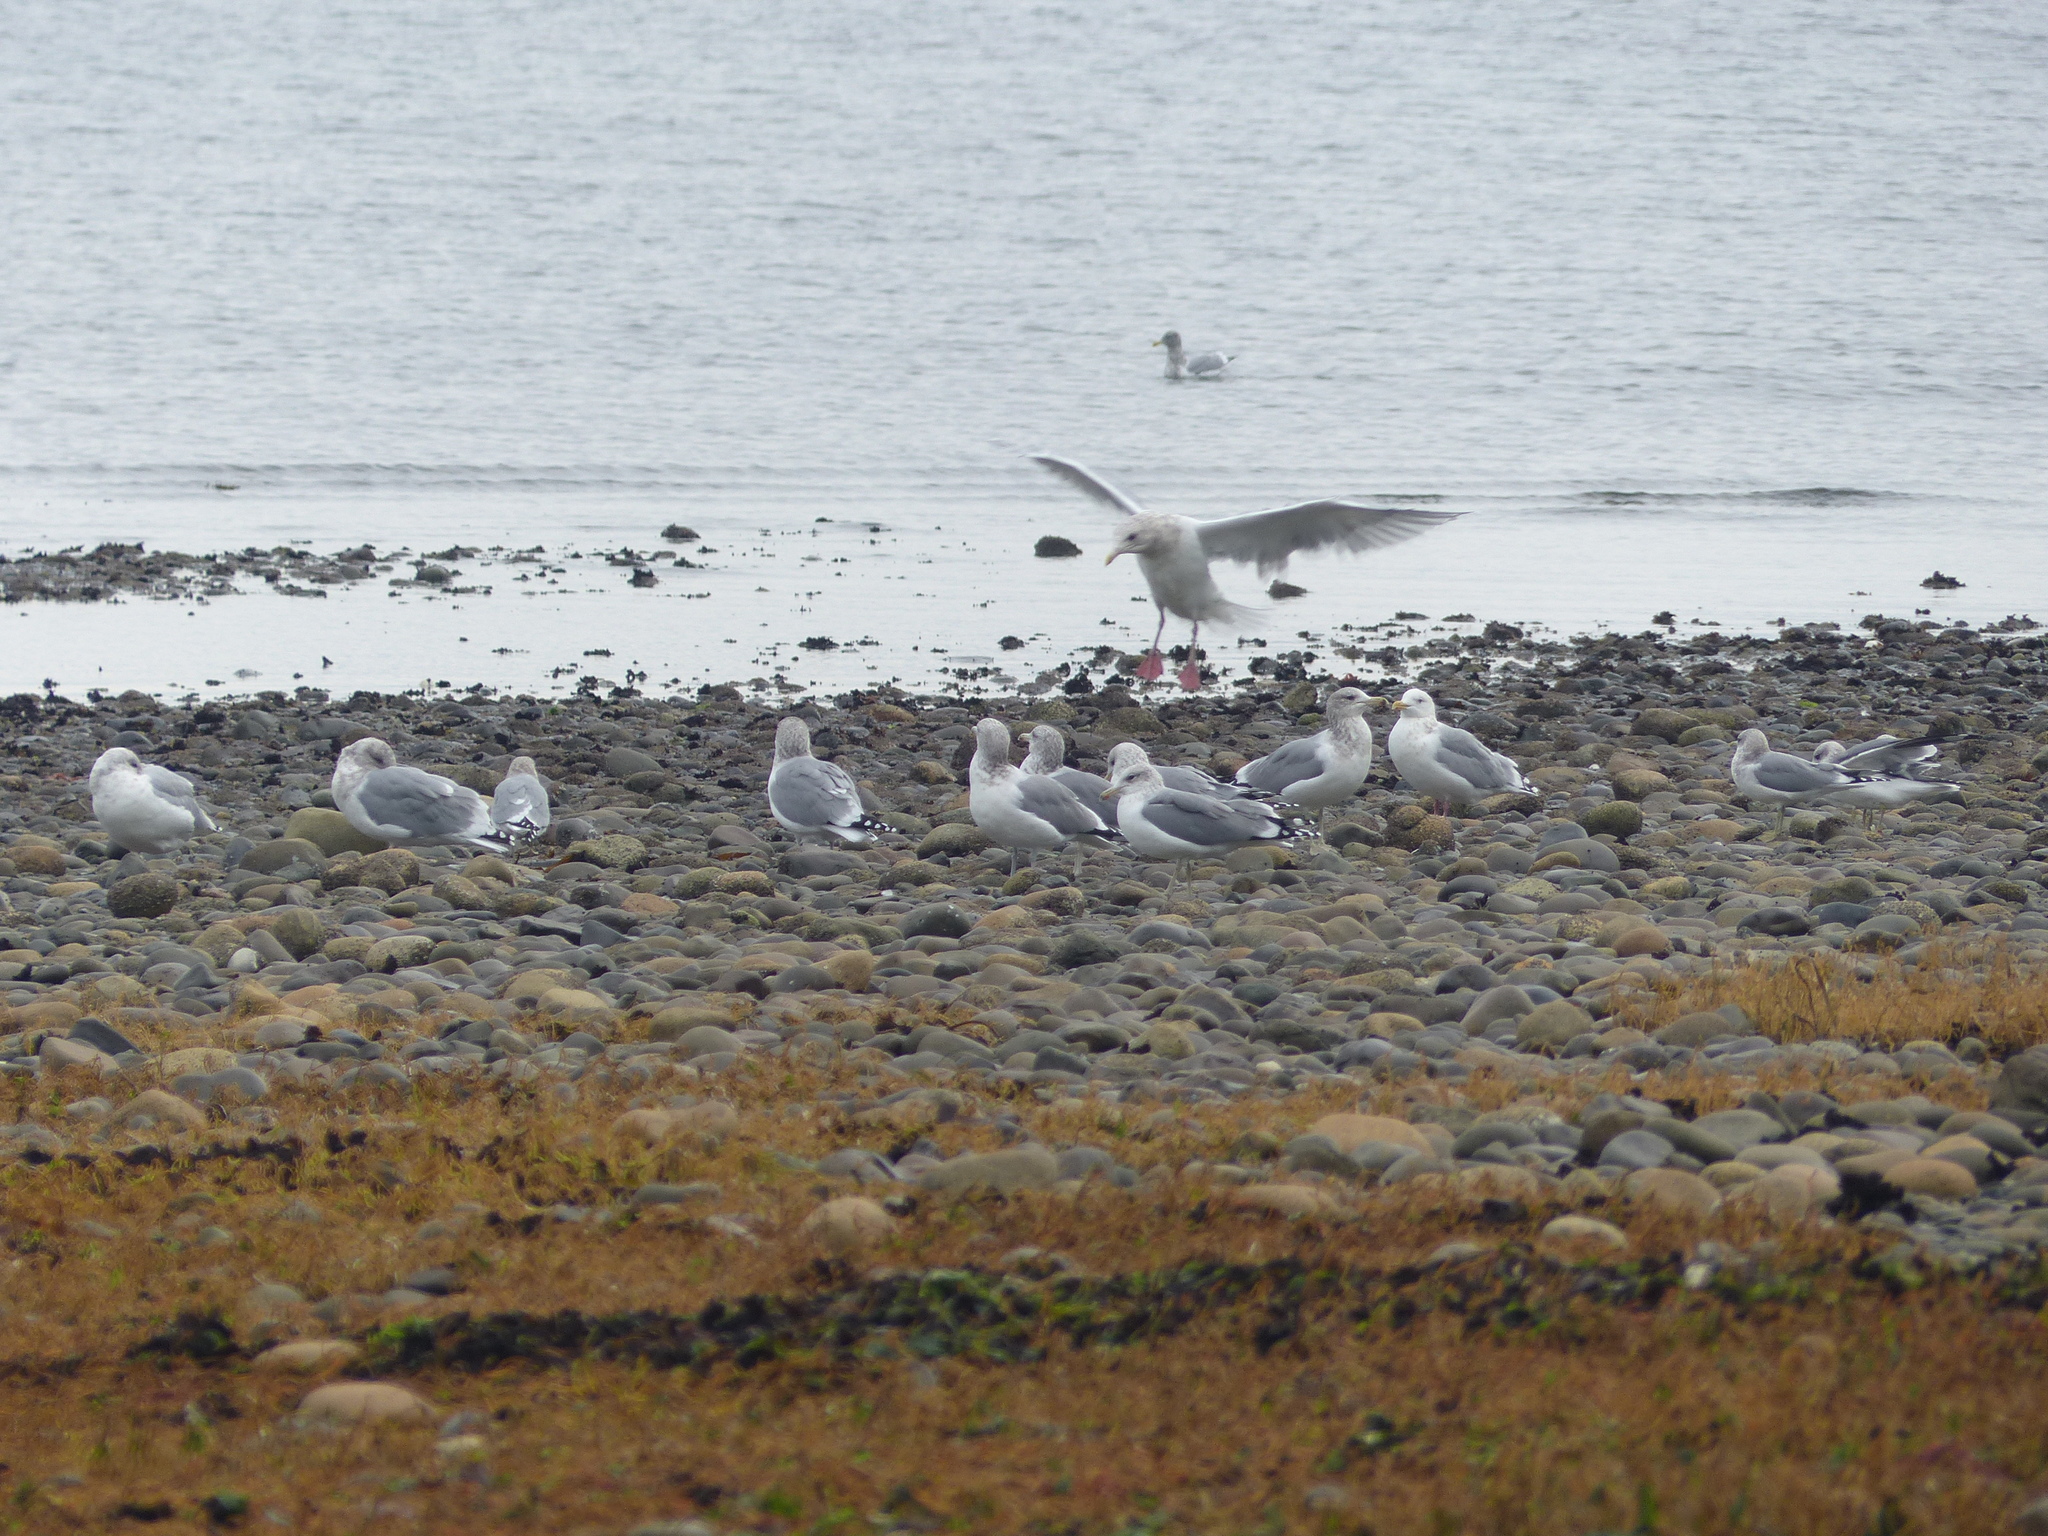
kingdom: Animalia
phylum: Chordata
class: Aves
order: Charadriiformes
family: Laridae
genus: Larus
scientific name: Larus californicus
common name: California gull
